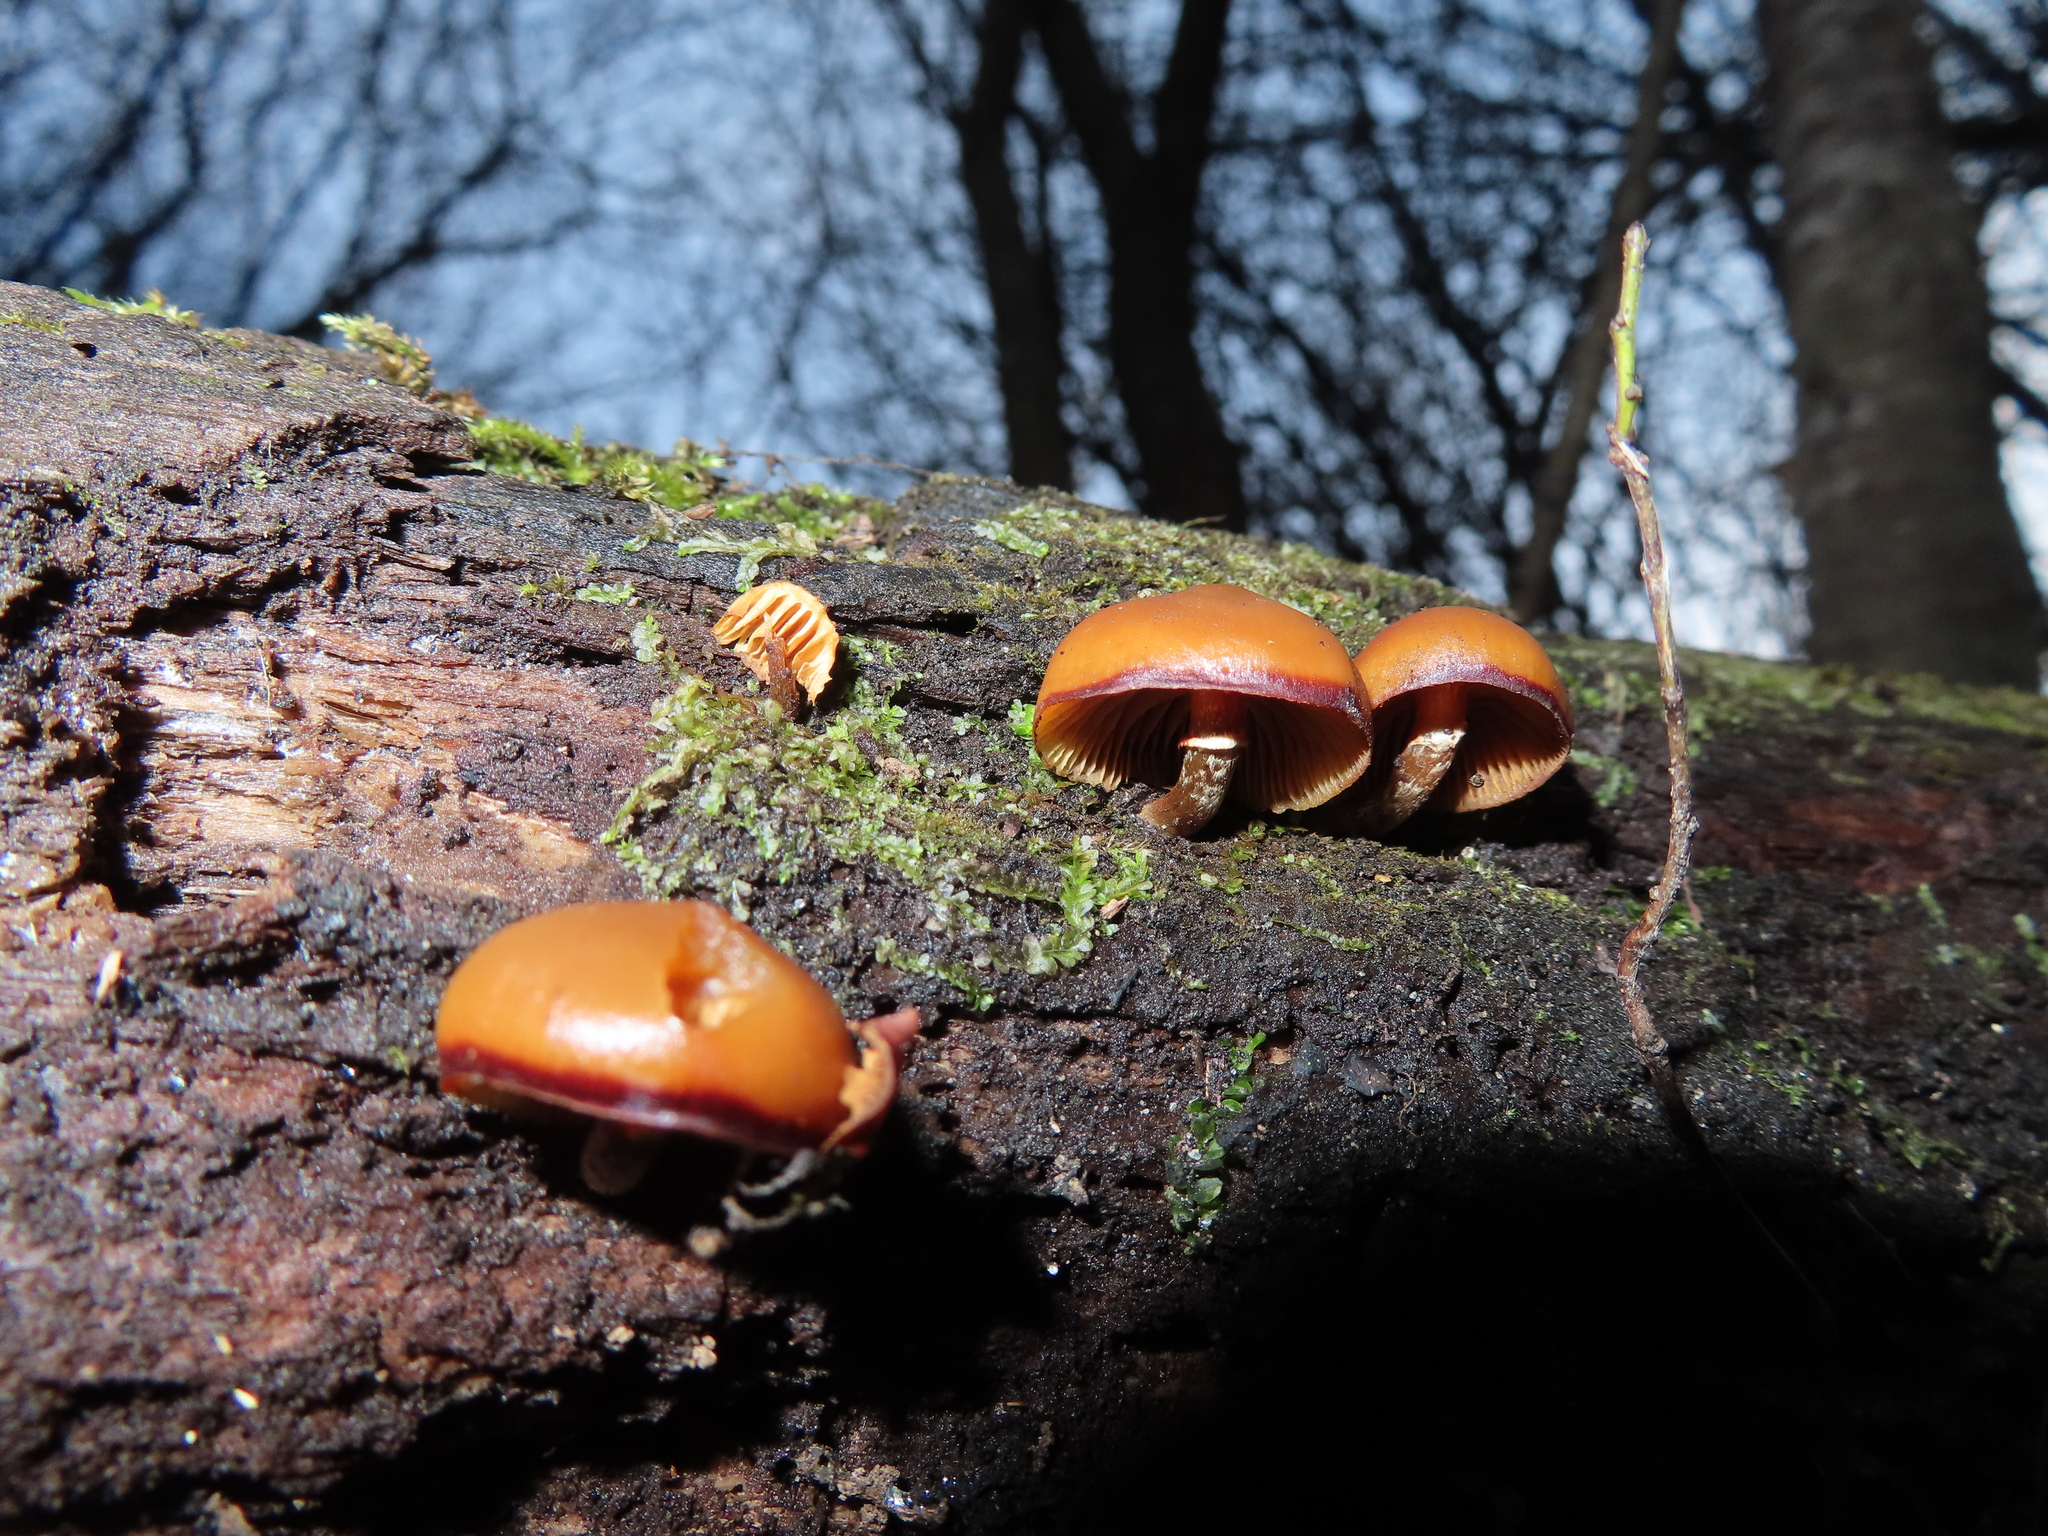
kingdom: Fungi
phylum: Basidiomycota
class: Agaricomycetes
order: Agaricales
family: Hymenogastraceae
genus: Galerina
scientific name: Galerina marginata
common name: Funeral bell
